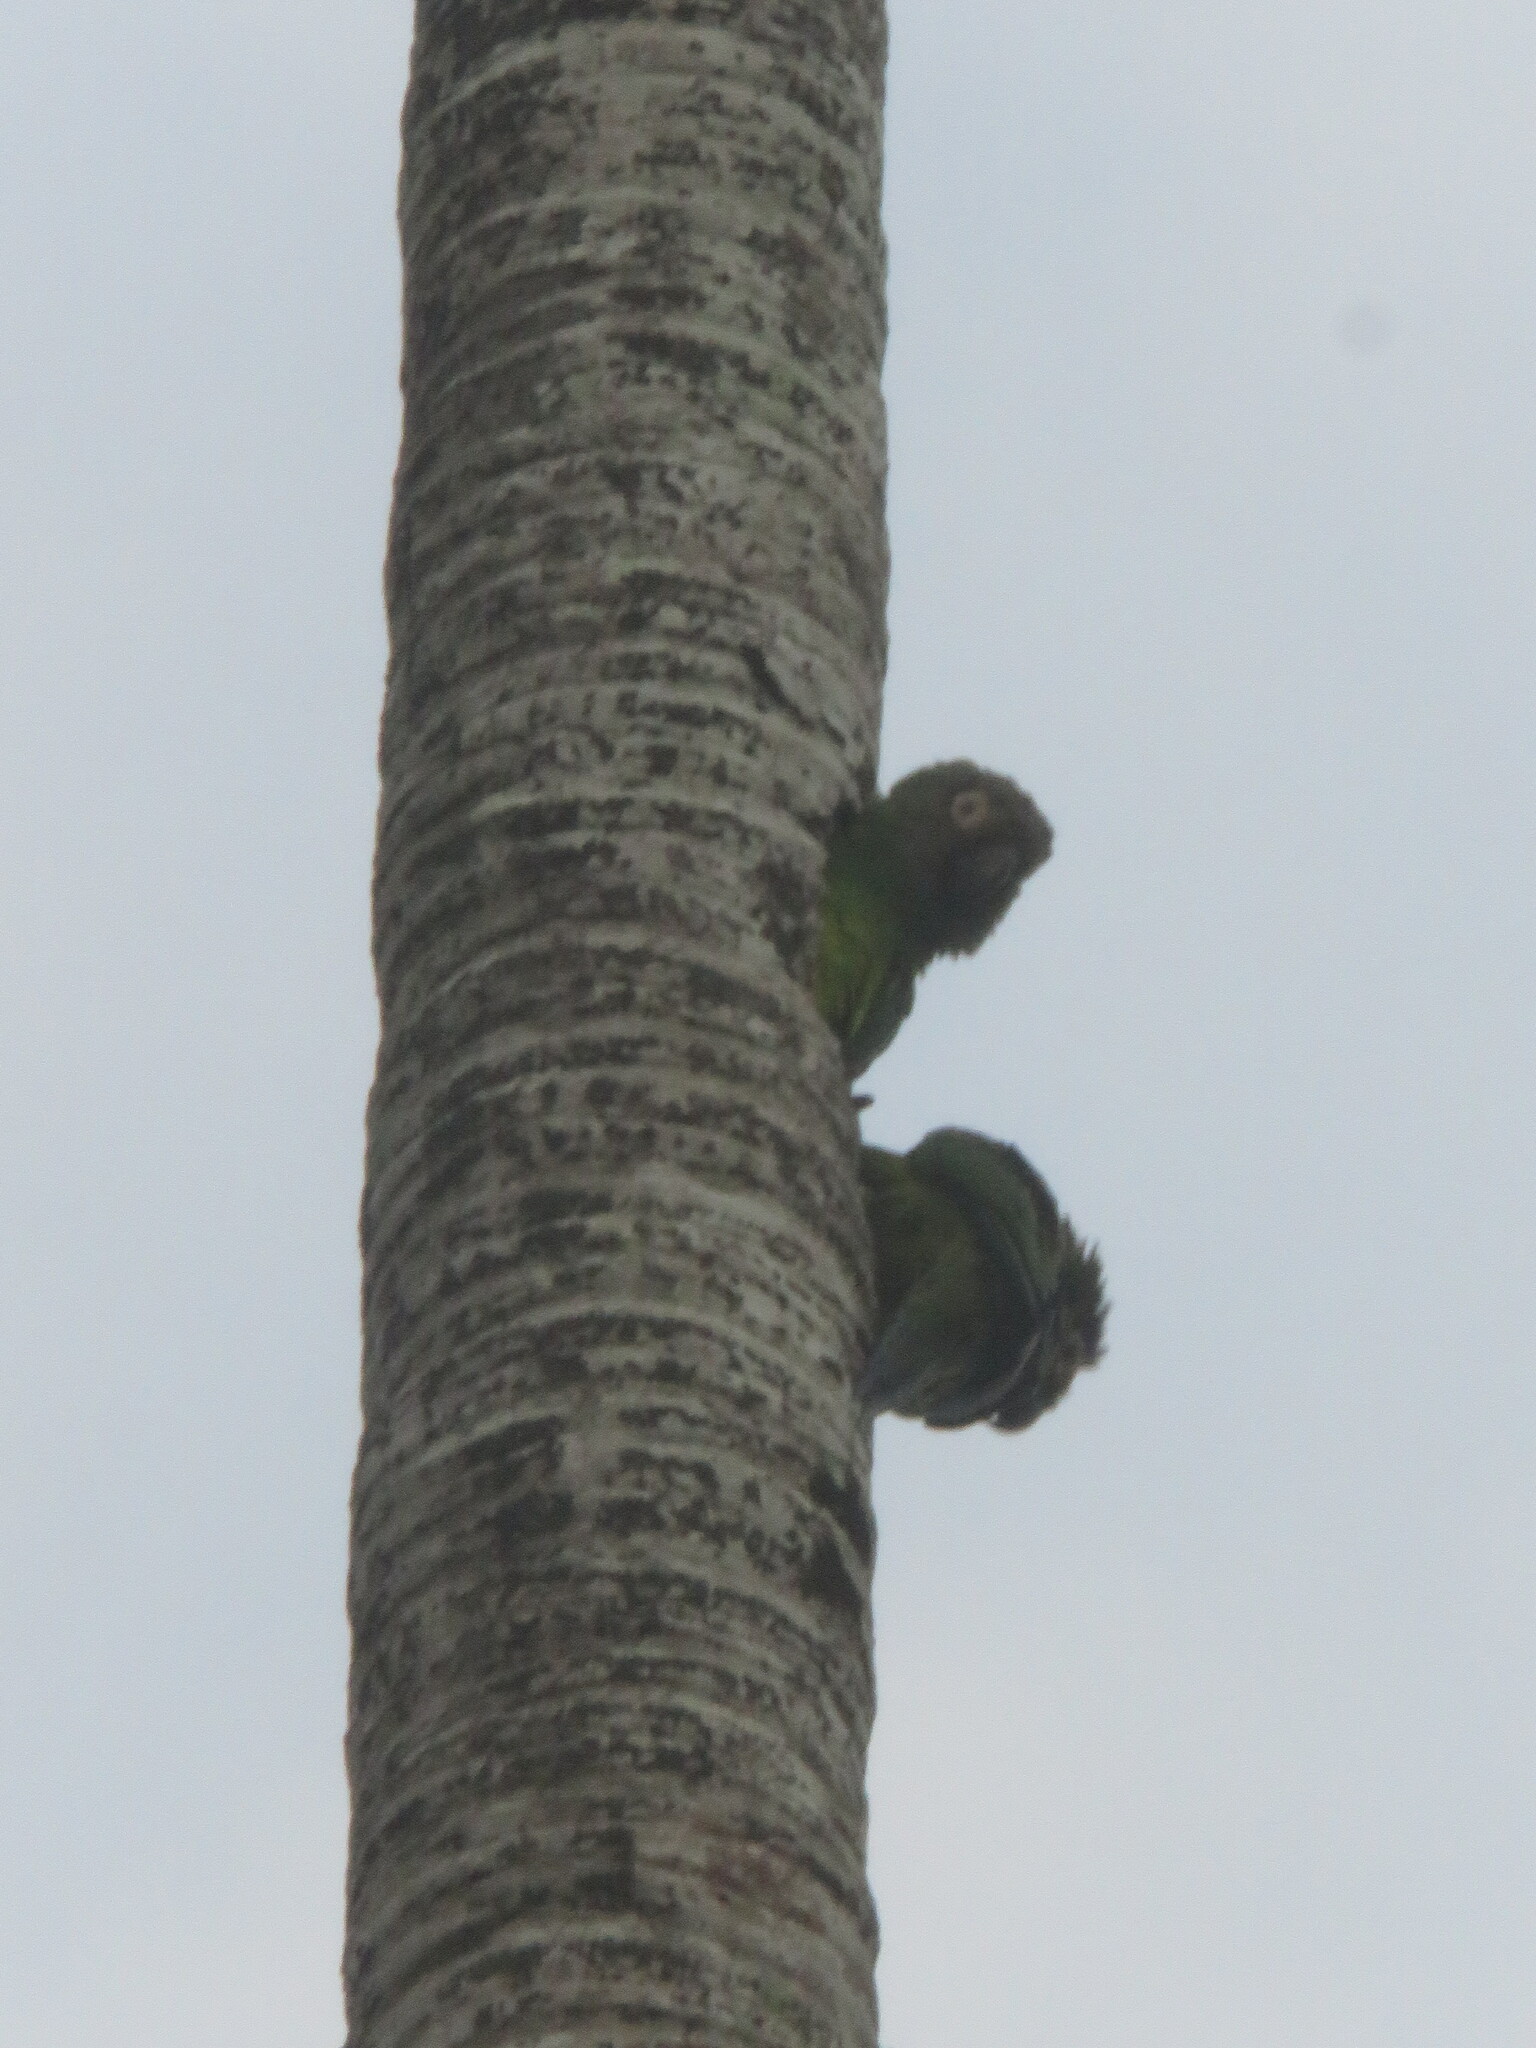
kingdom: Animalia
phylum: Chordata
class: Aves
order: Psittaciformes
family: Psittacidae
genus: Aratinga
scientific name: Aratinga weddellii
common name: Dusky-headed parakeet
